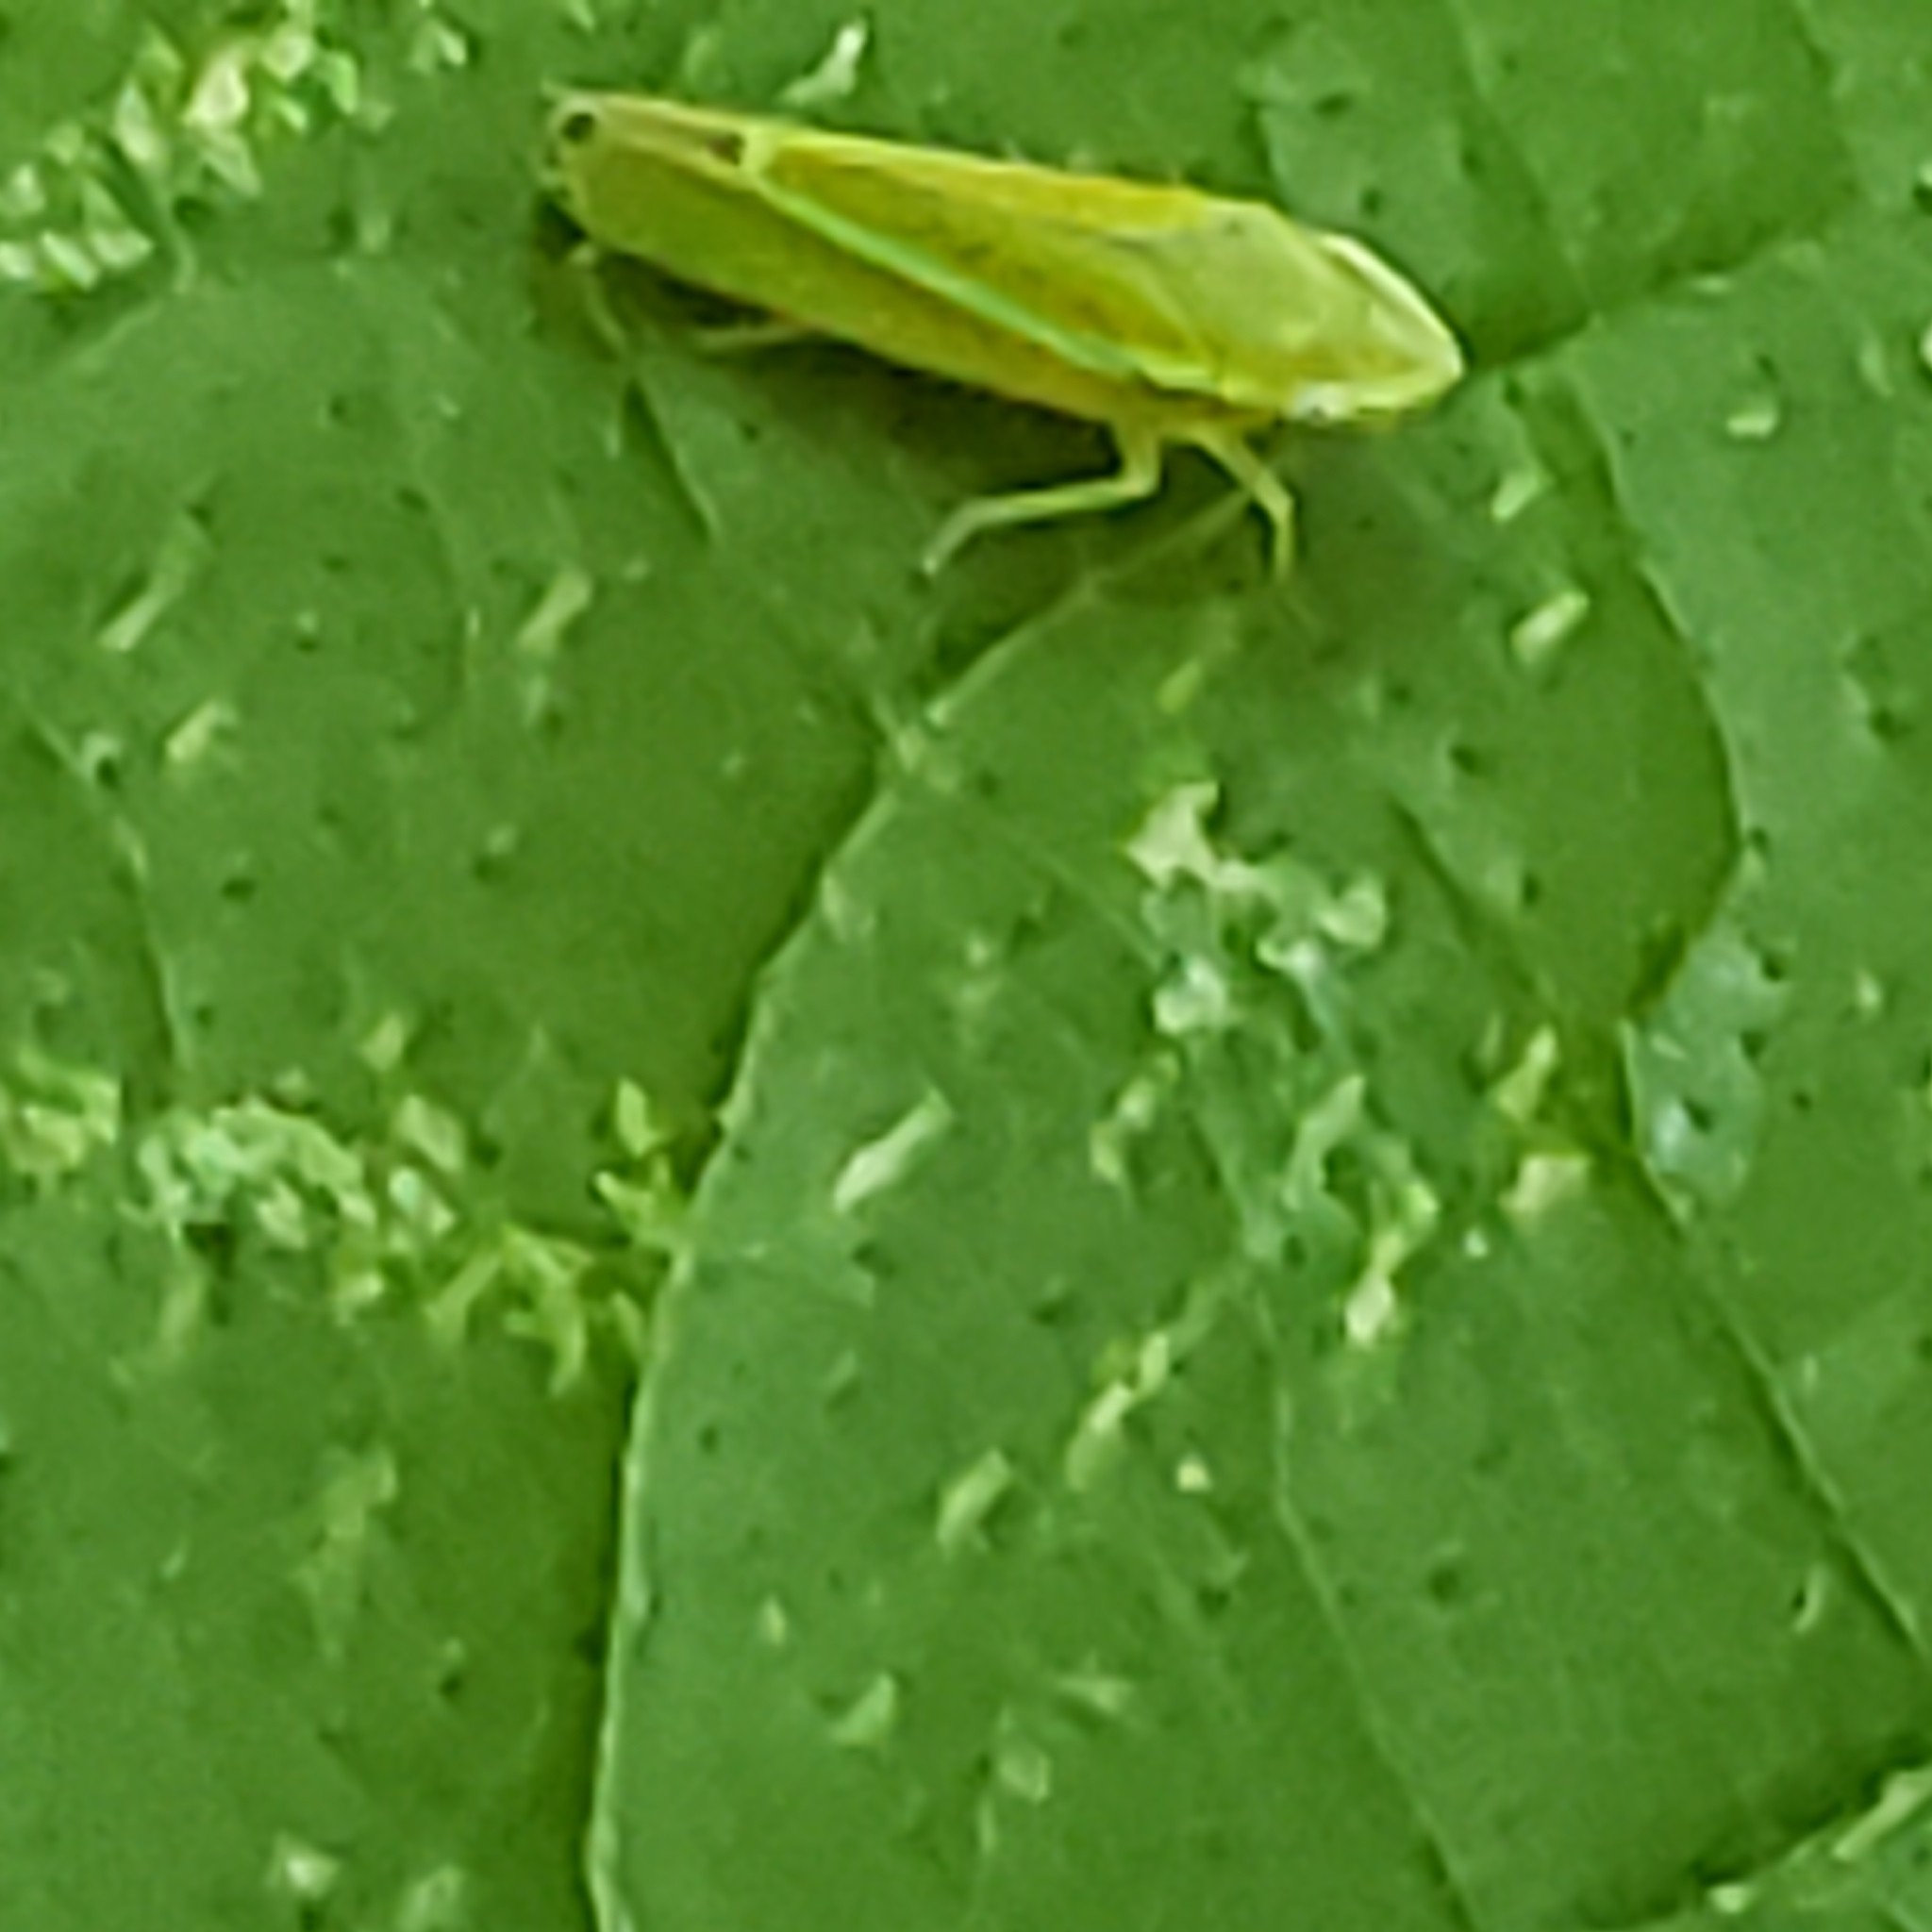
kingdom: Animalia
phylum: Arthropoda
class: Insecta
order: Hemiptera
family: Cicadellidae
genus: Graphocephala
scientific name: Graphocephala versuta
